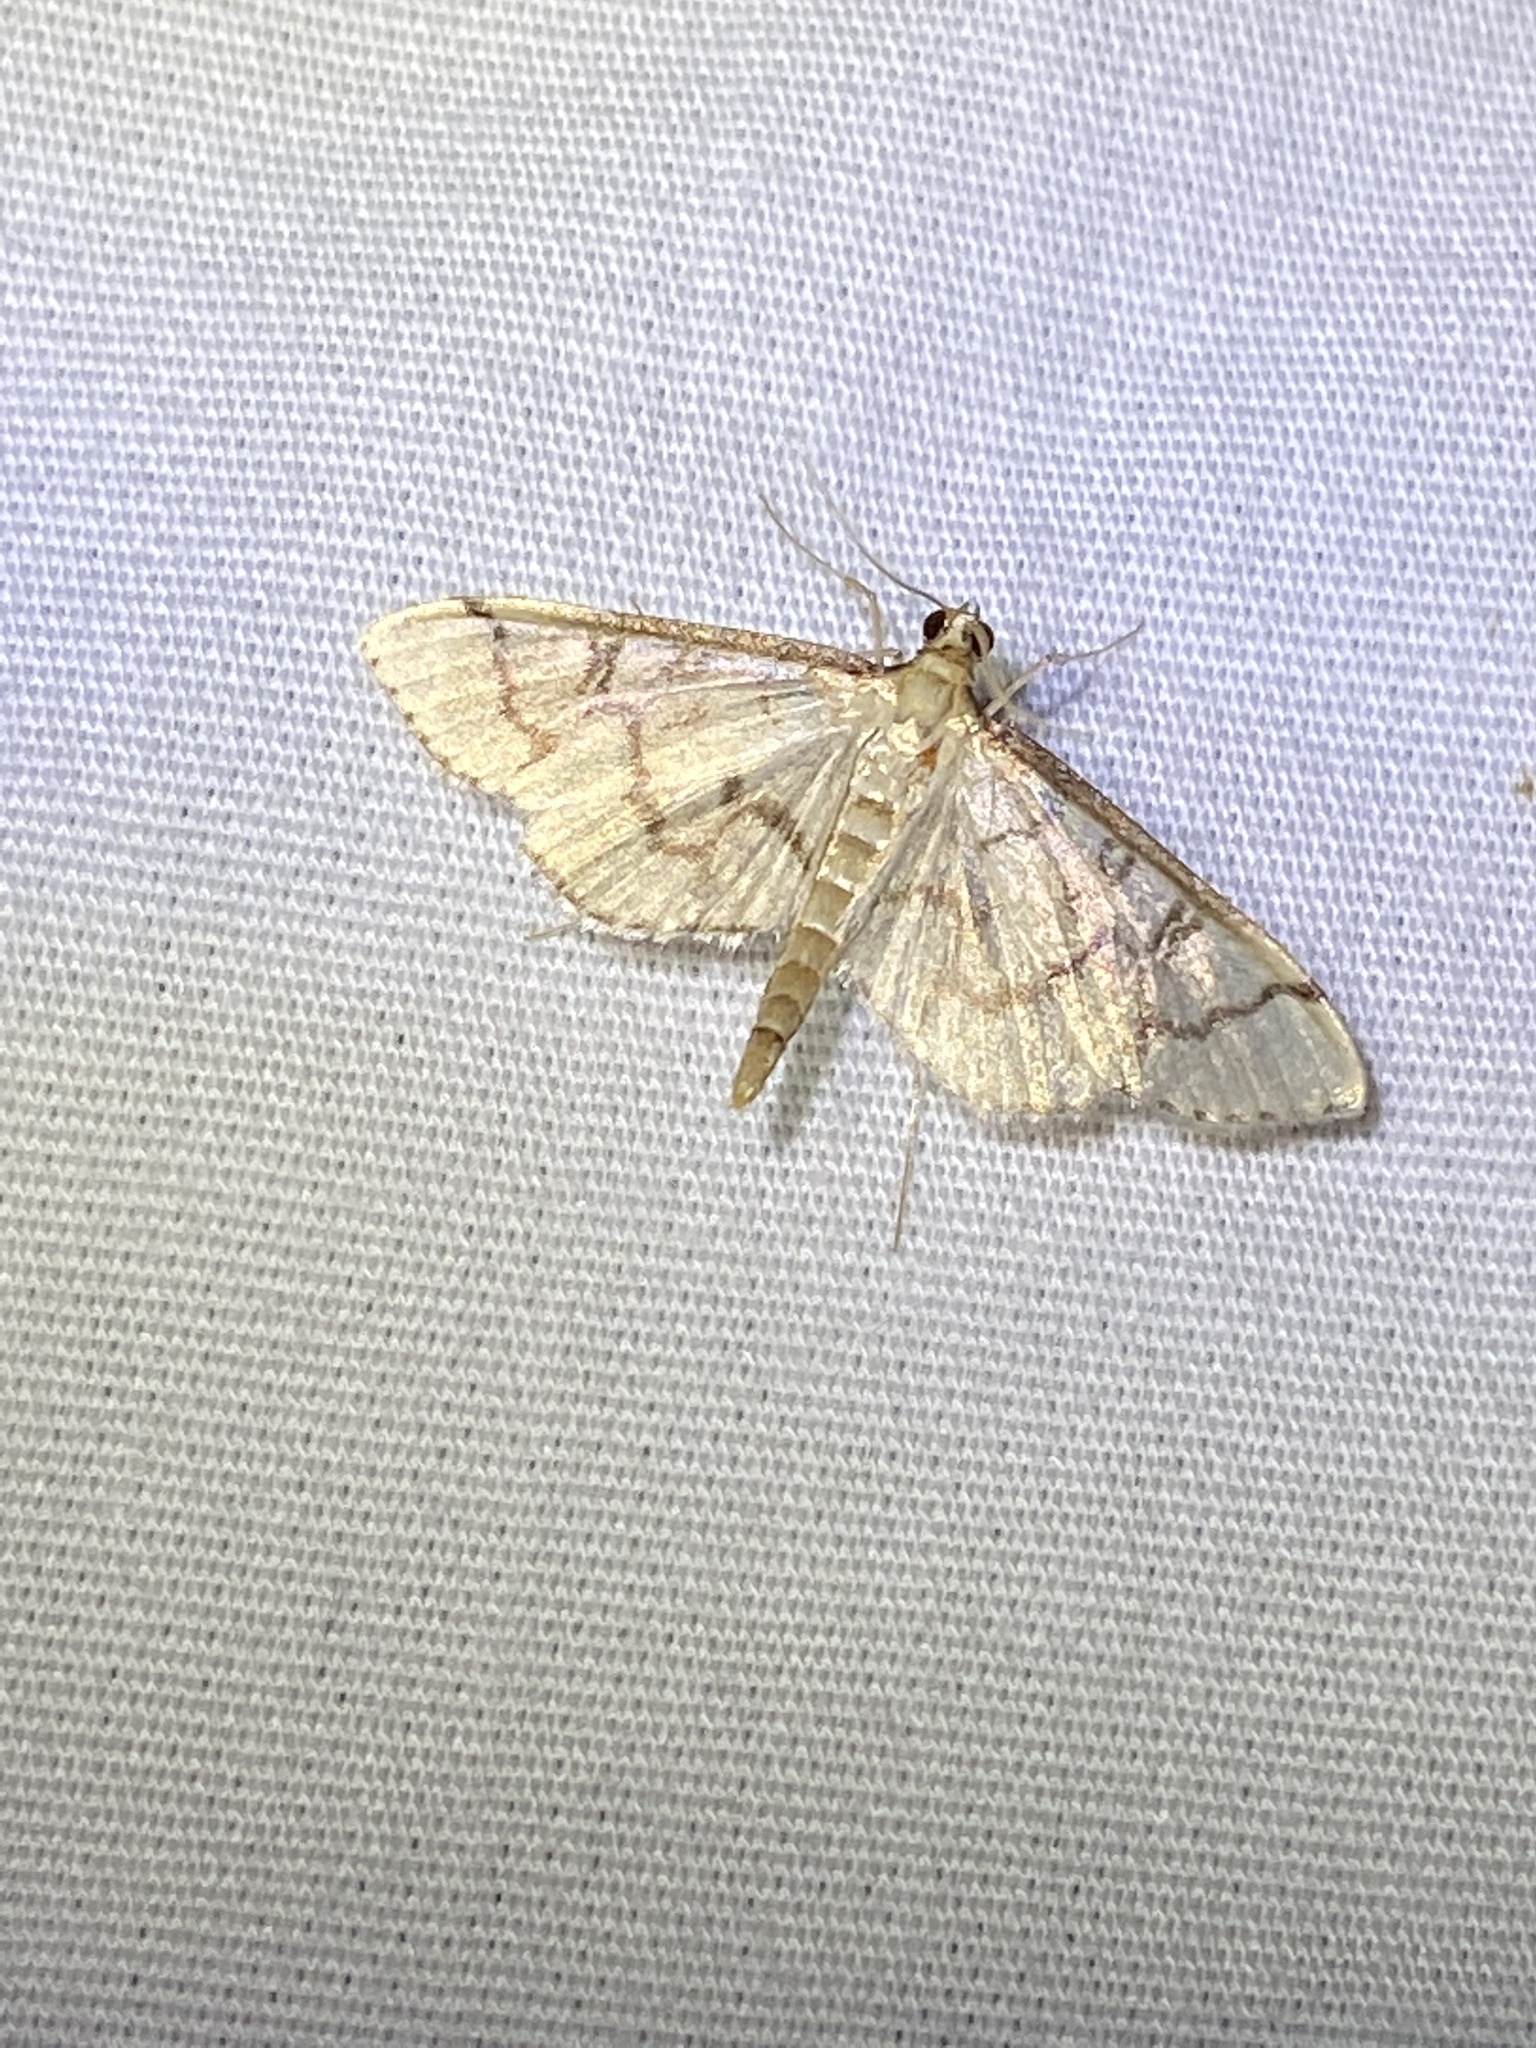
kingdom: Animalia
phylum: Arthropoda
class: Insecta
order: Lepidoptera
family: Crambidae
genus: Lamprosema
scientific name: Lamprosema Blepharomastix ranalis
